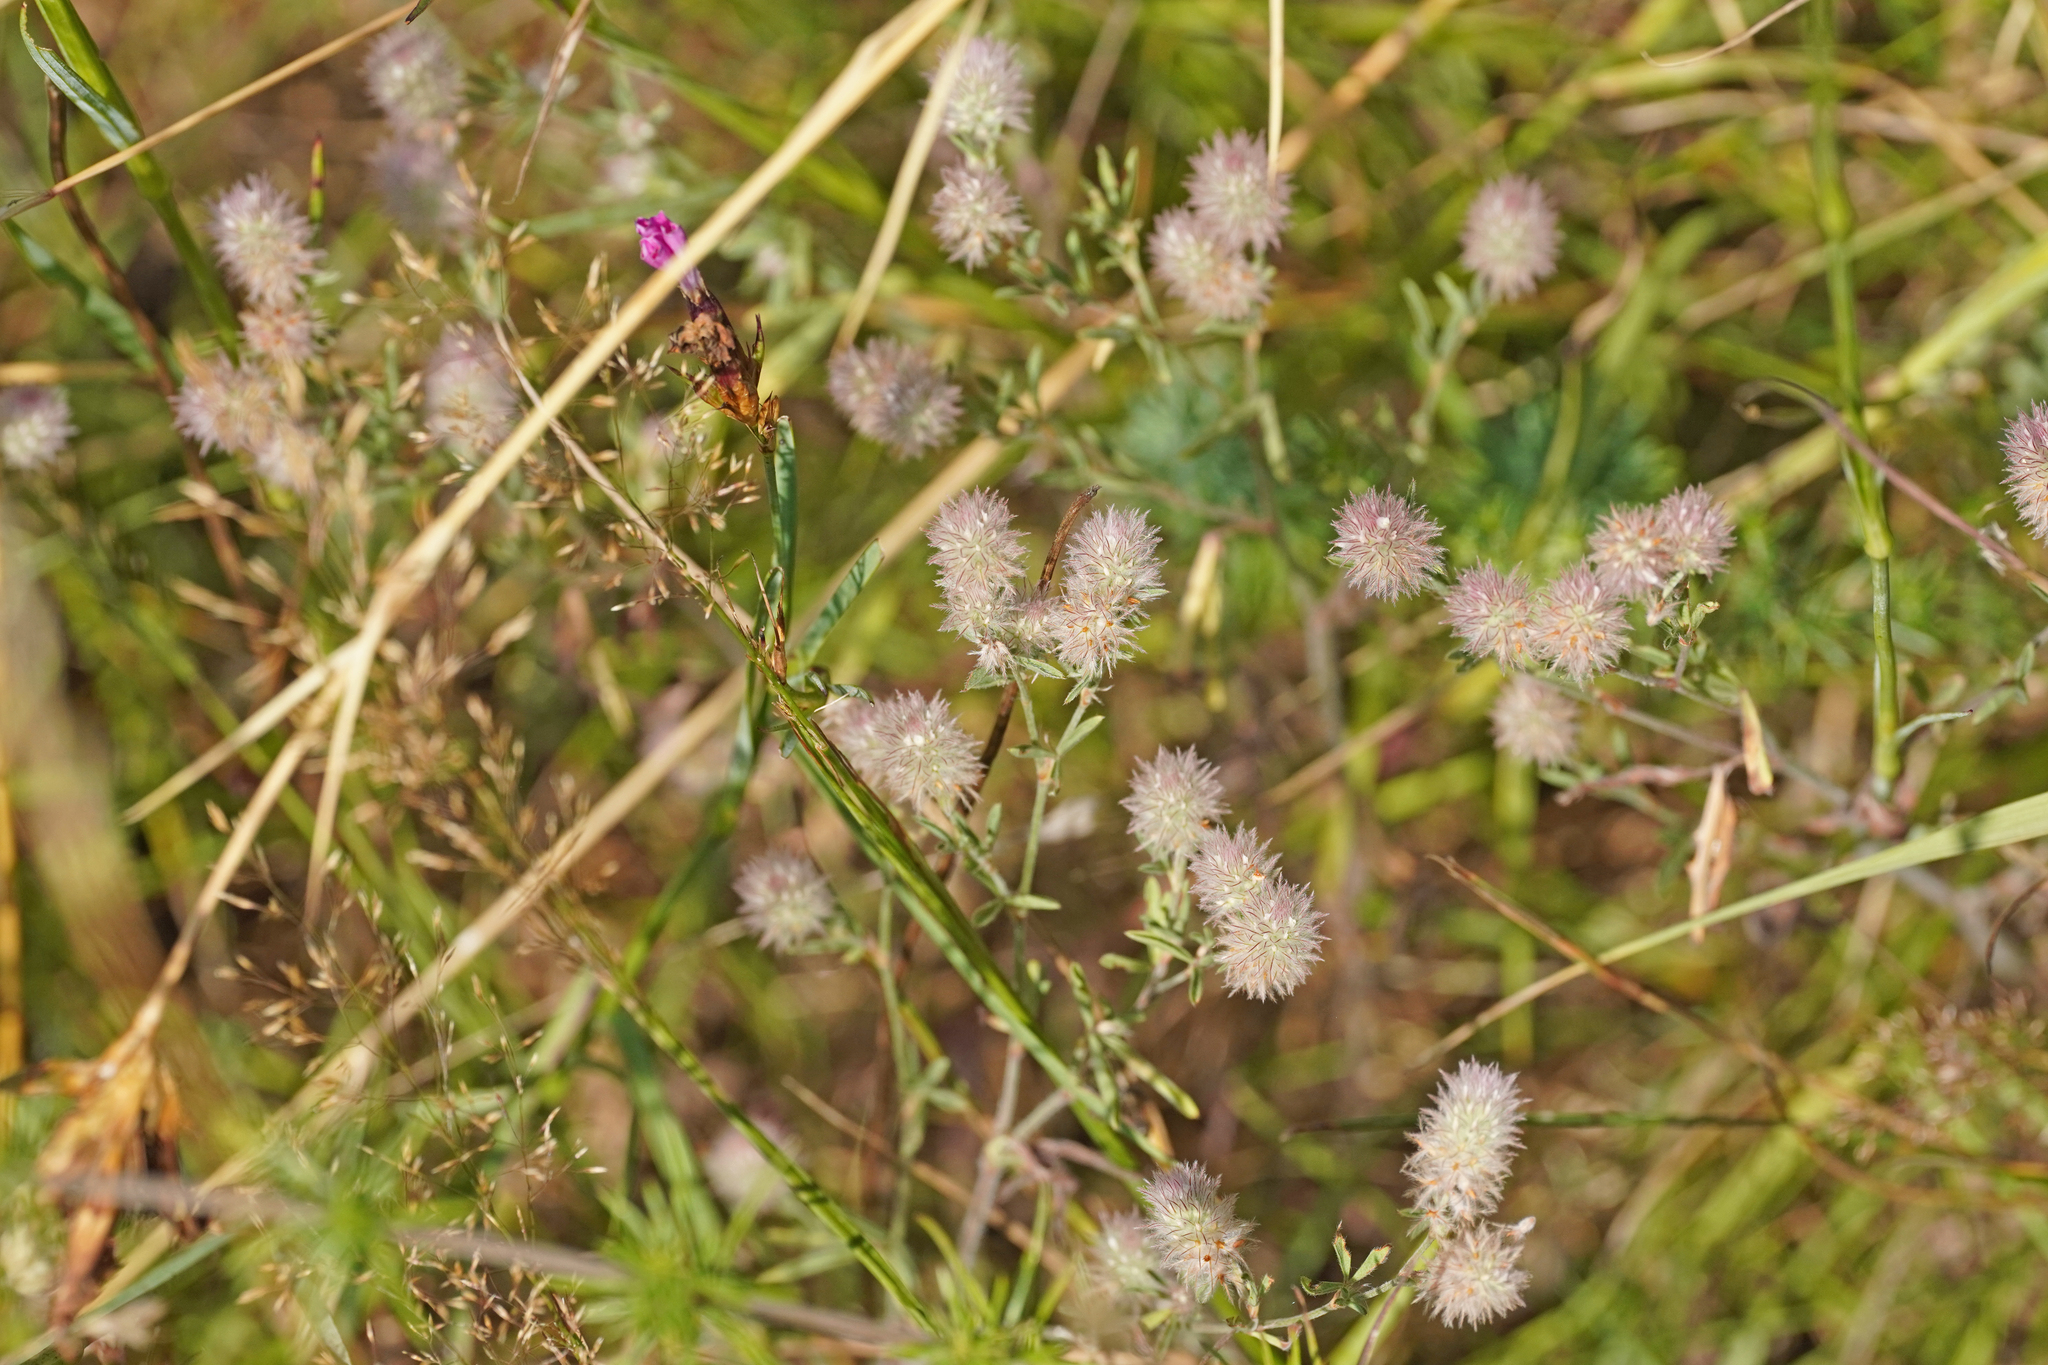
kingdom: Plantae
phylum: Tracheophyta
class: Magnoliopsida
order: Fabales
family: Fabaceae
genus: Trifolium
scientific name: Trifolium arvense
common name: Hare's-foot clover
